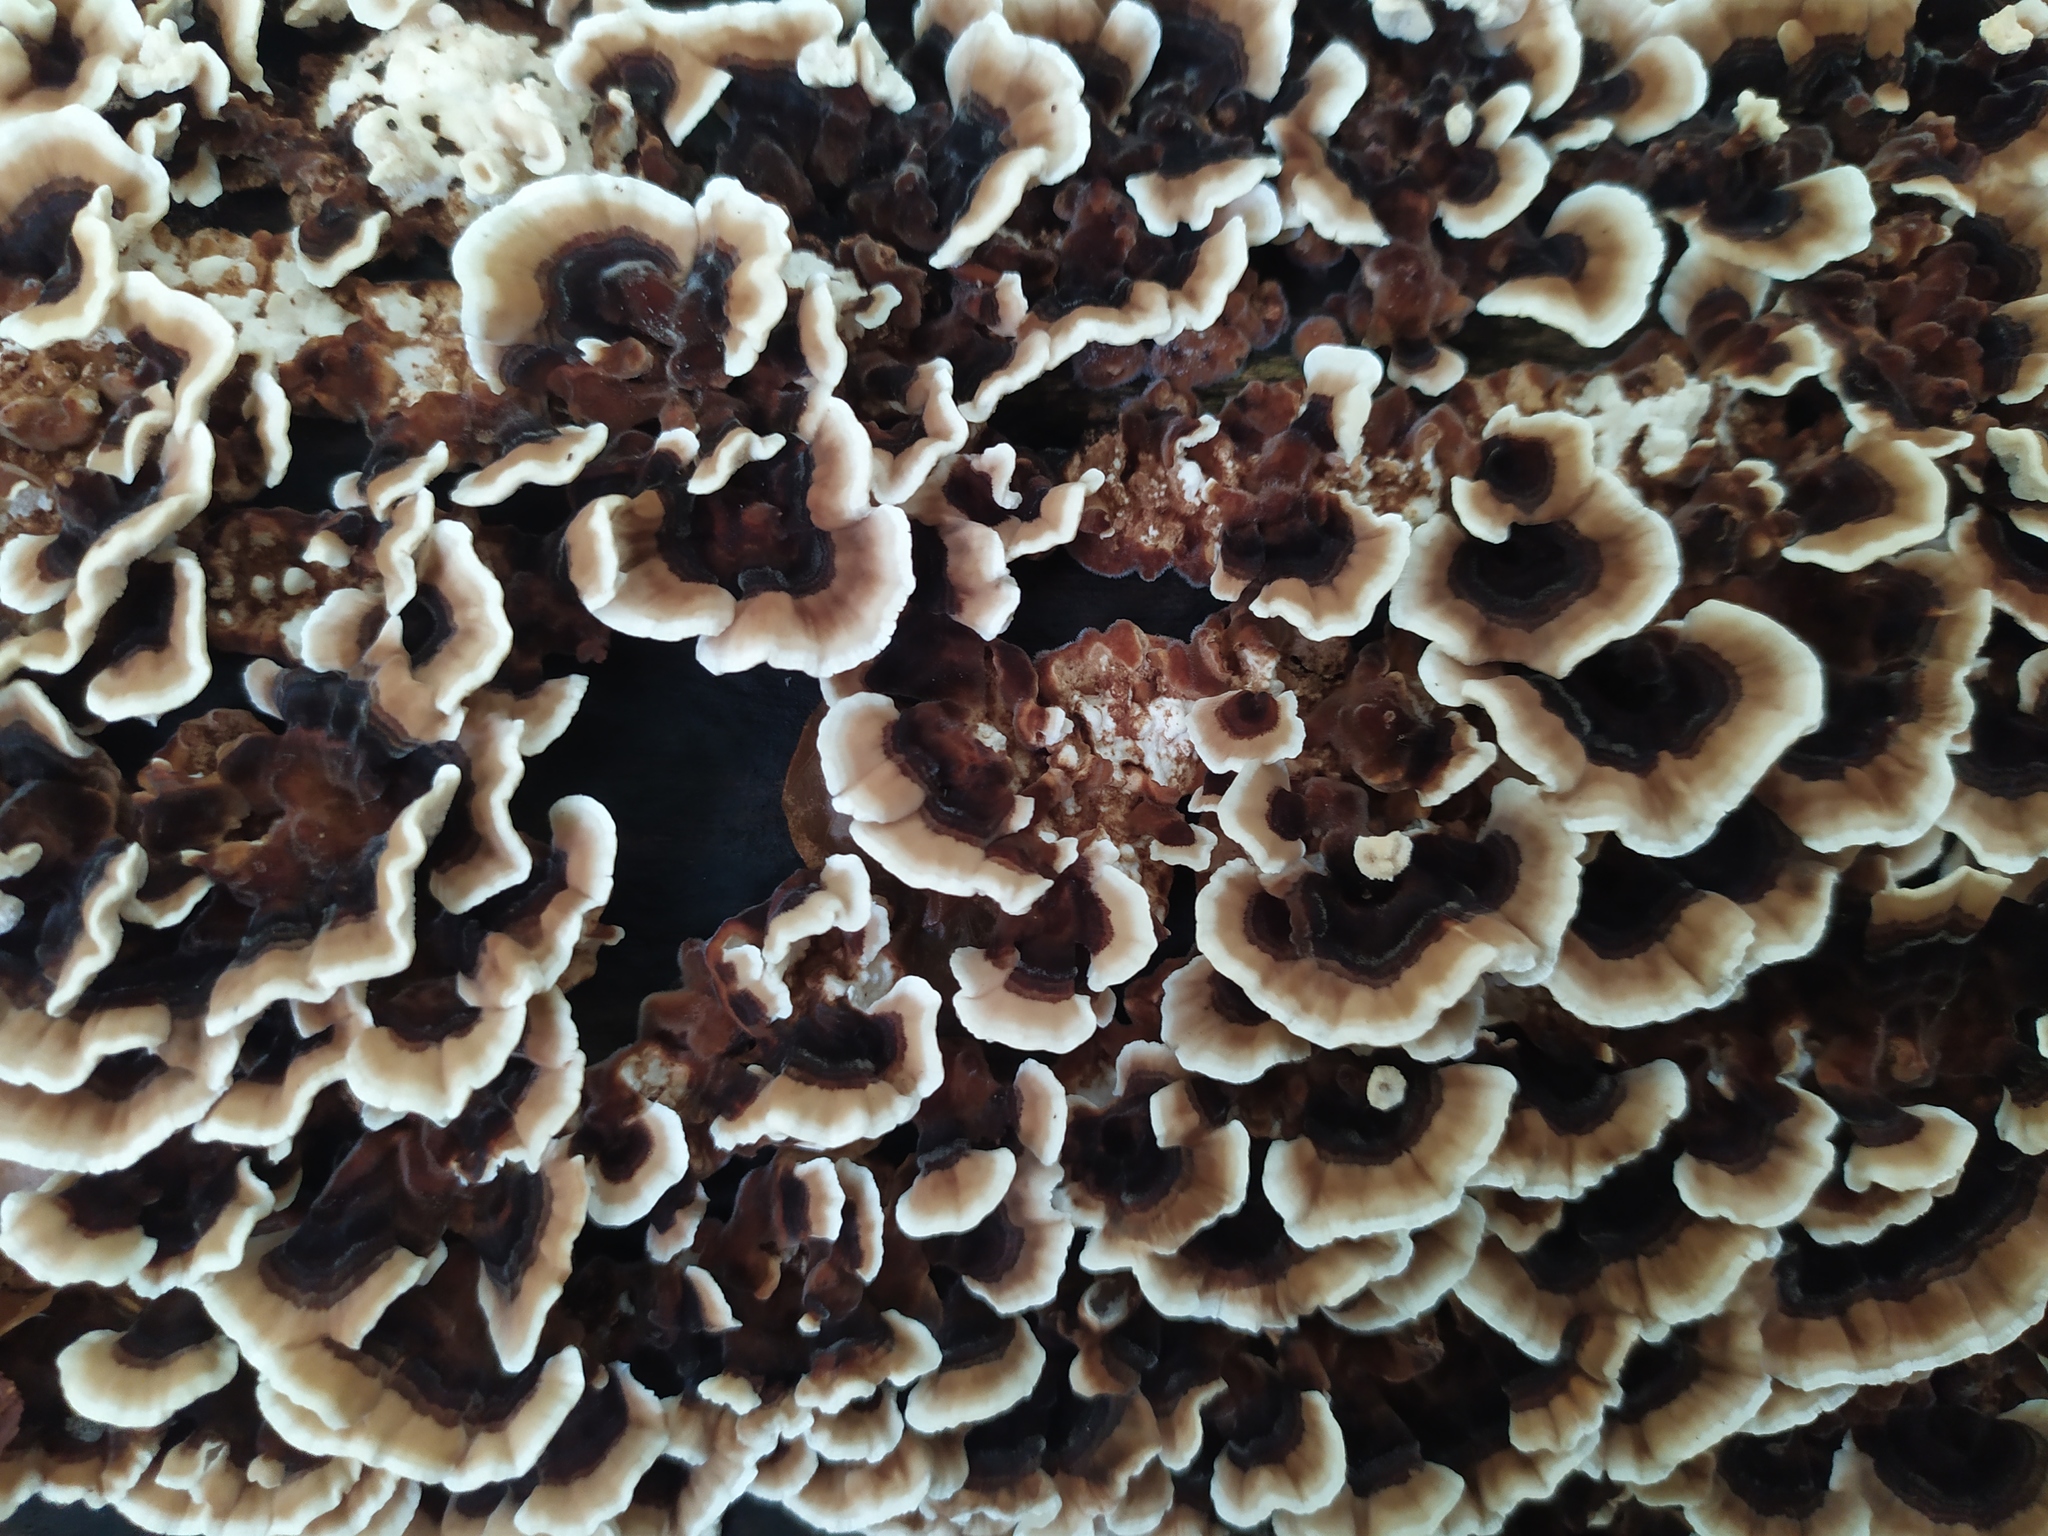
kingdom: Fungi
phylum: Basidiomycota
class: Agaricomycetes
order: Polyporales
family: Polyporaceae
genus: Trametes
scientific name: Trametes versicolor
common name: Turkeytail
